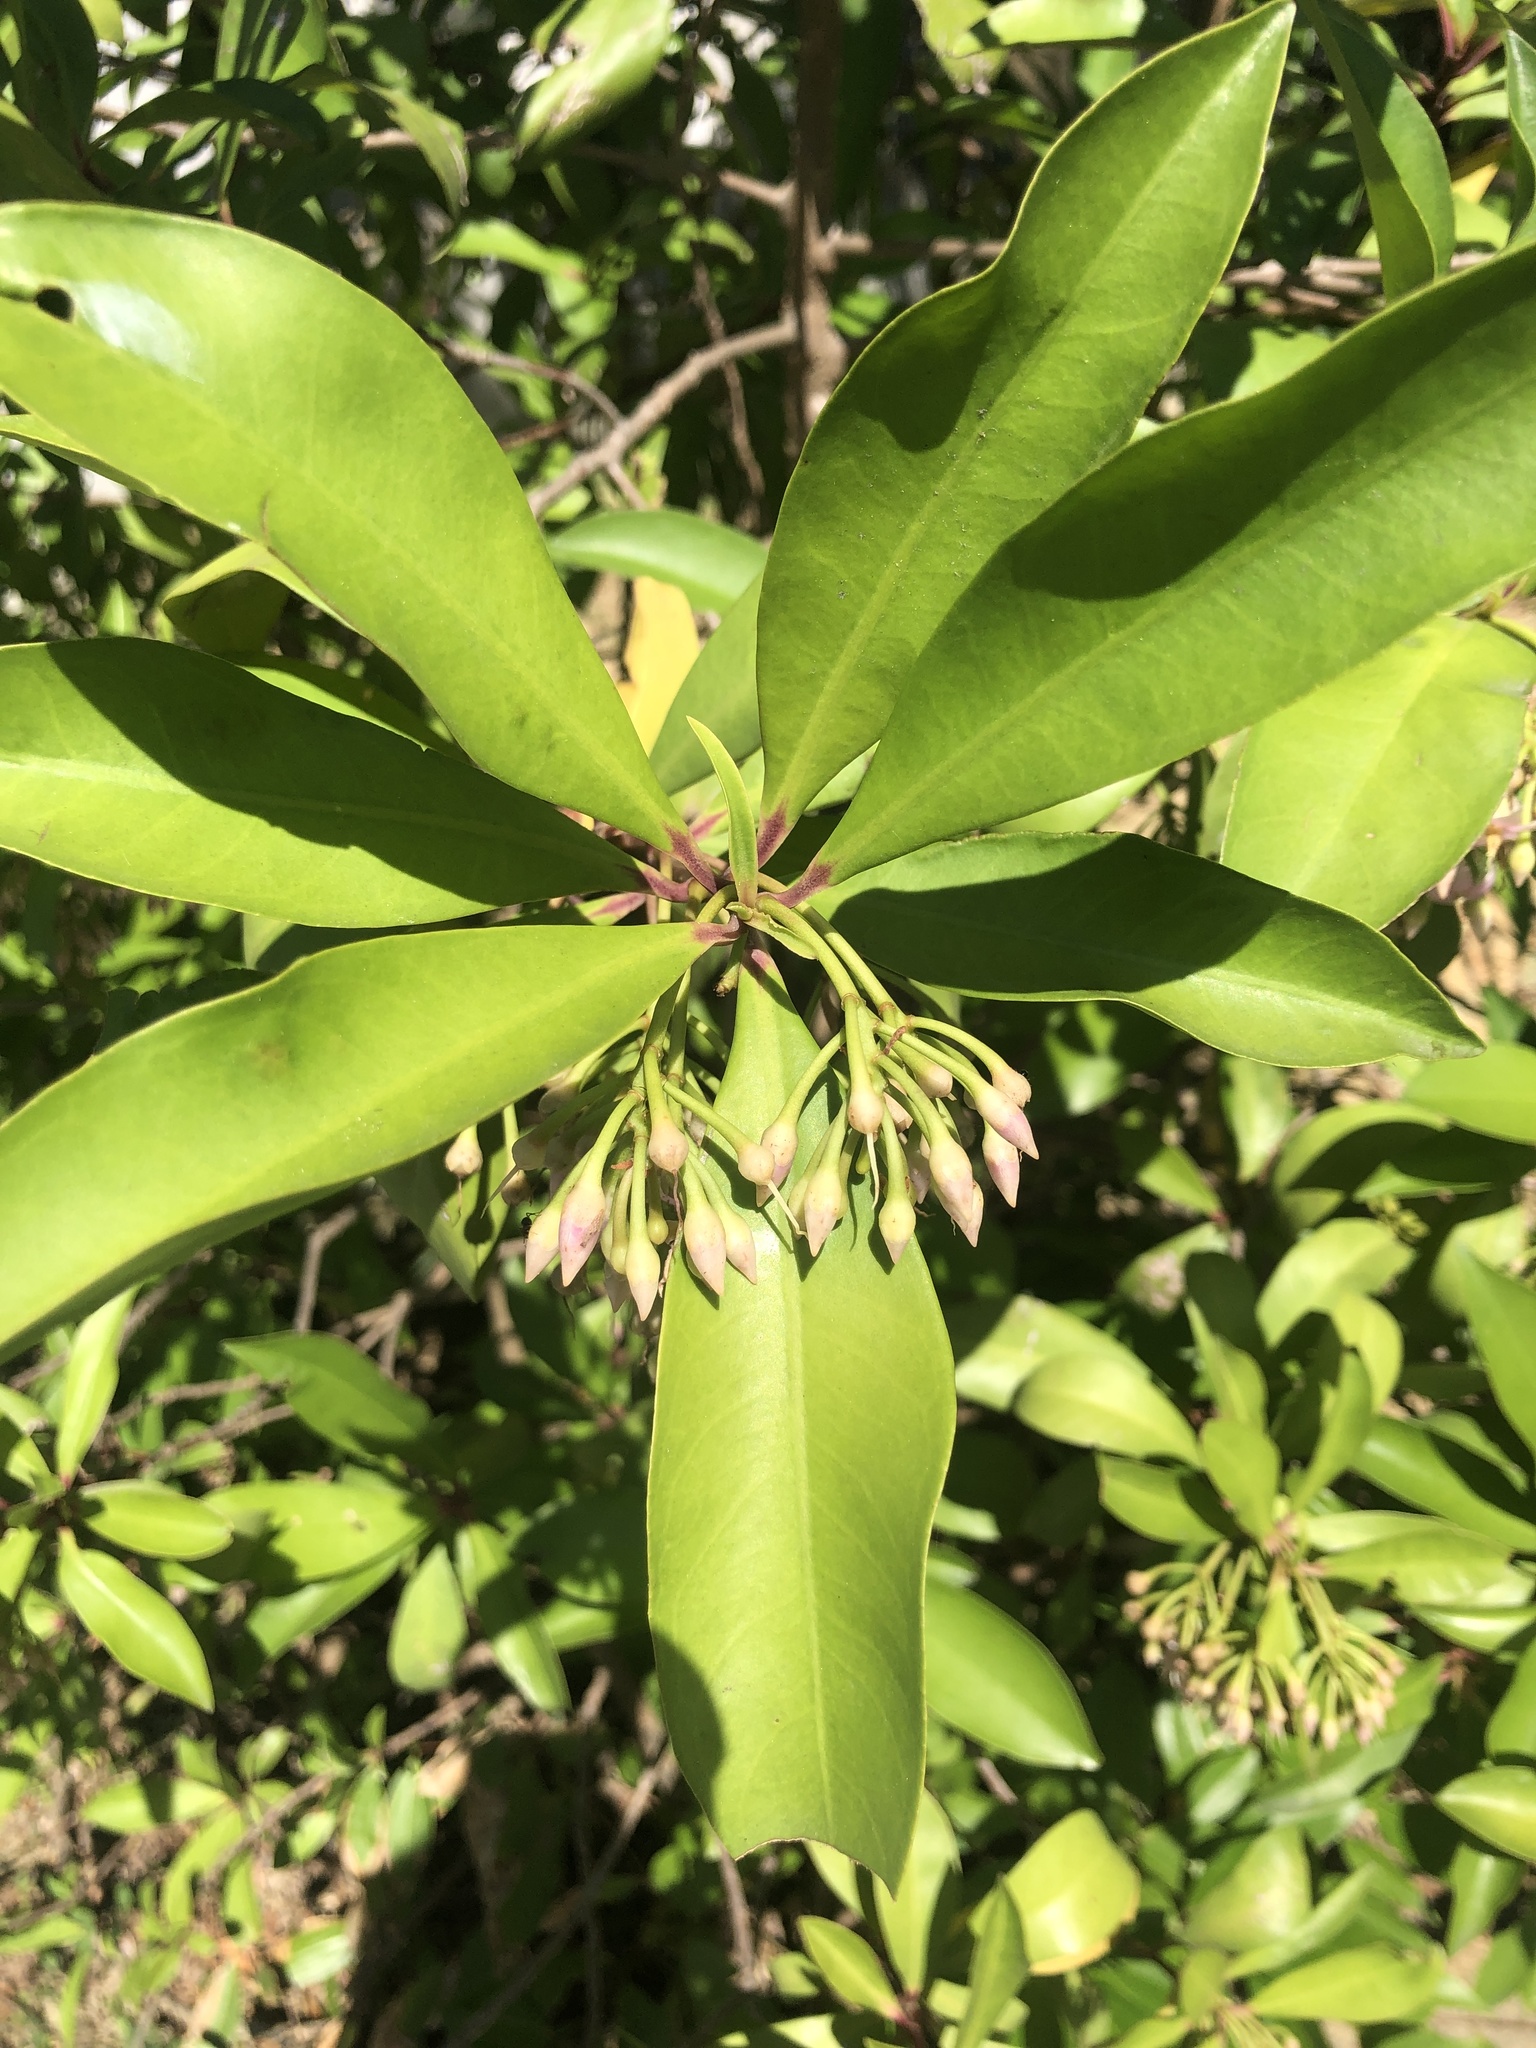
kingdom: Plantae
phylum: Tracheophyta
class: Magnoliopsida
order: Ericales
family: Primulaceae
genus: Ardisia
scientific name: Ardisia elliptica
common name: Shoebutton
